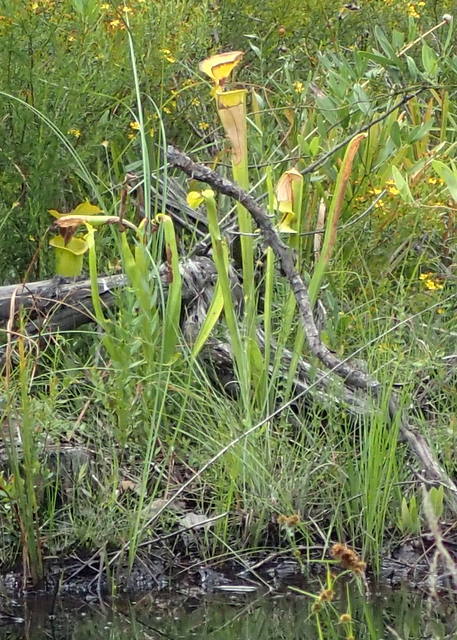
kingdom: Plantae
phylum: Tracheophyta
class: Magnoliopsida
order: Ericales
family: Sarraceniaceae
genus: Sarracenia
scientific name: Sarracenia flava
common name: Trumpets
